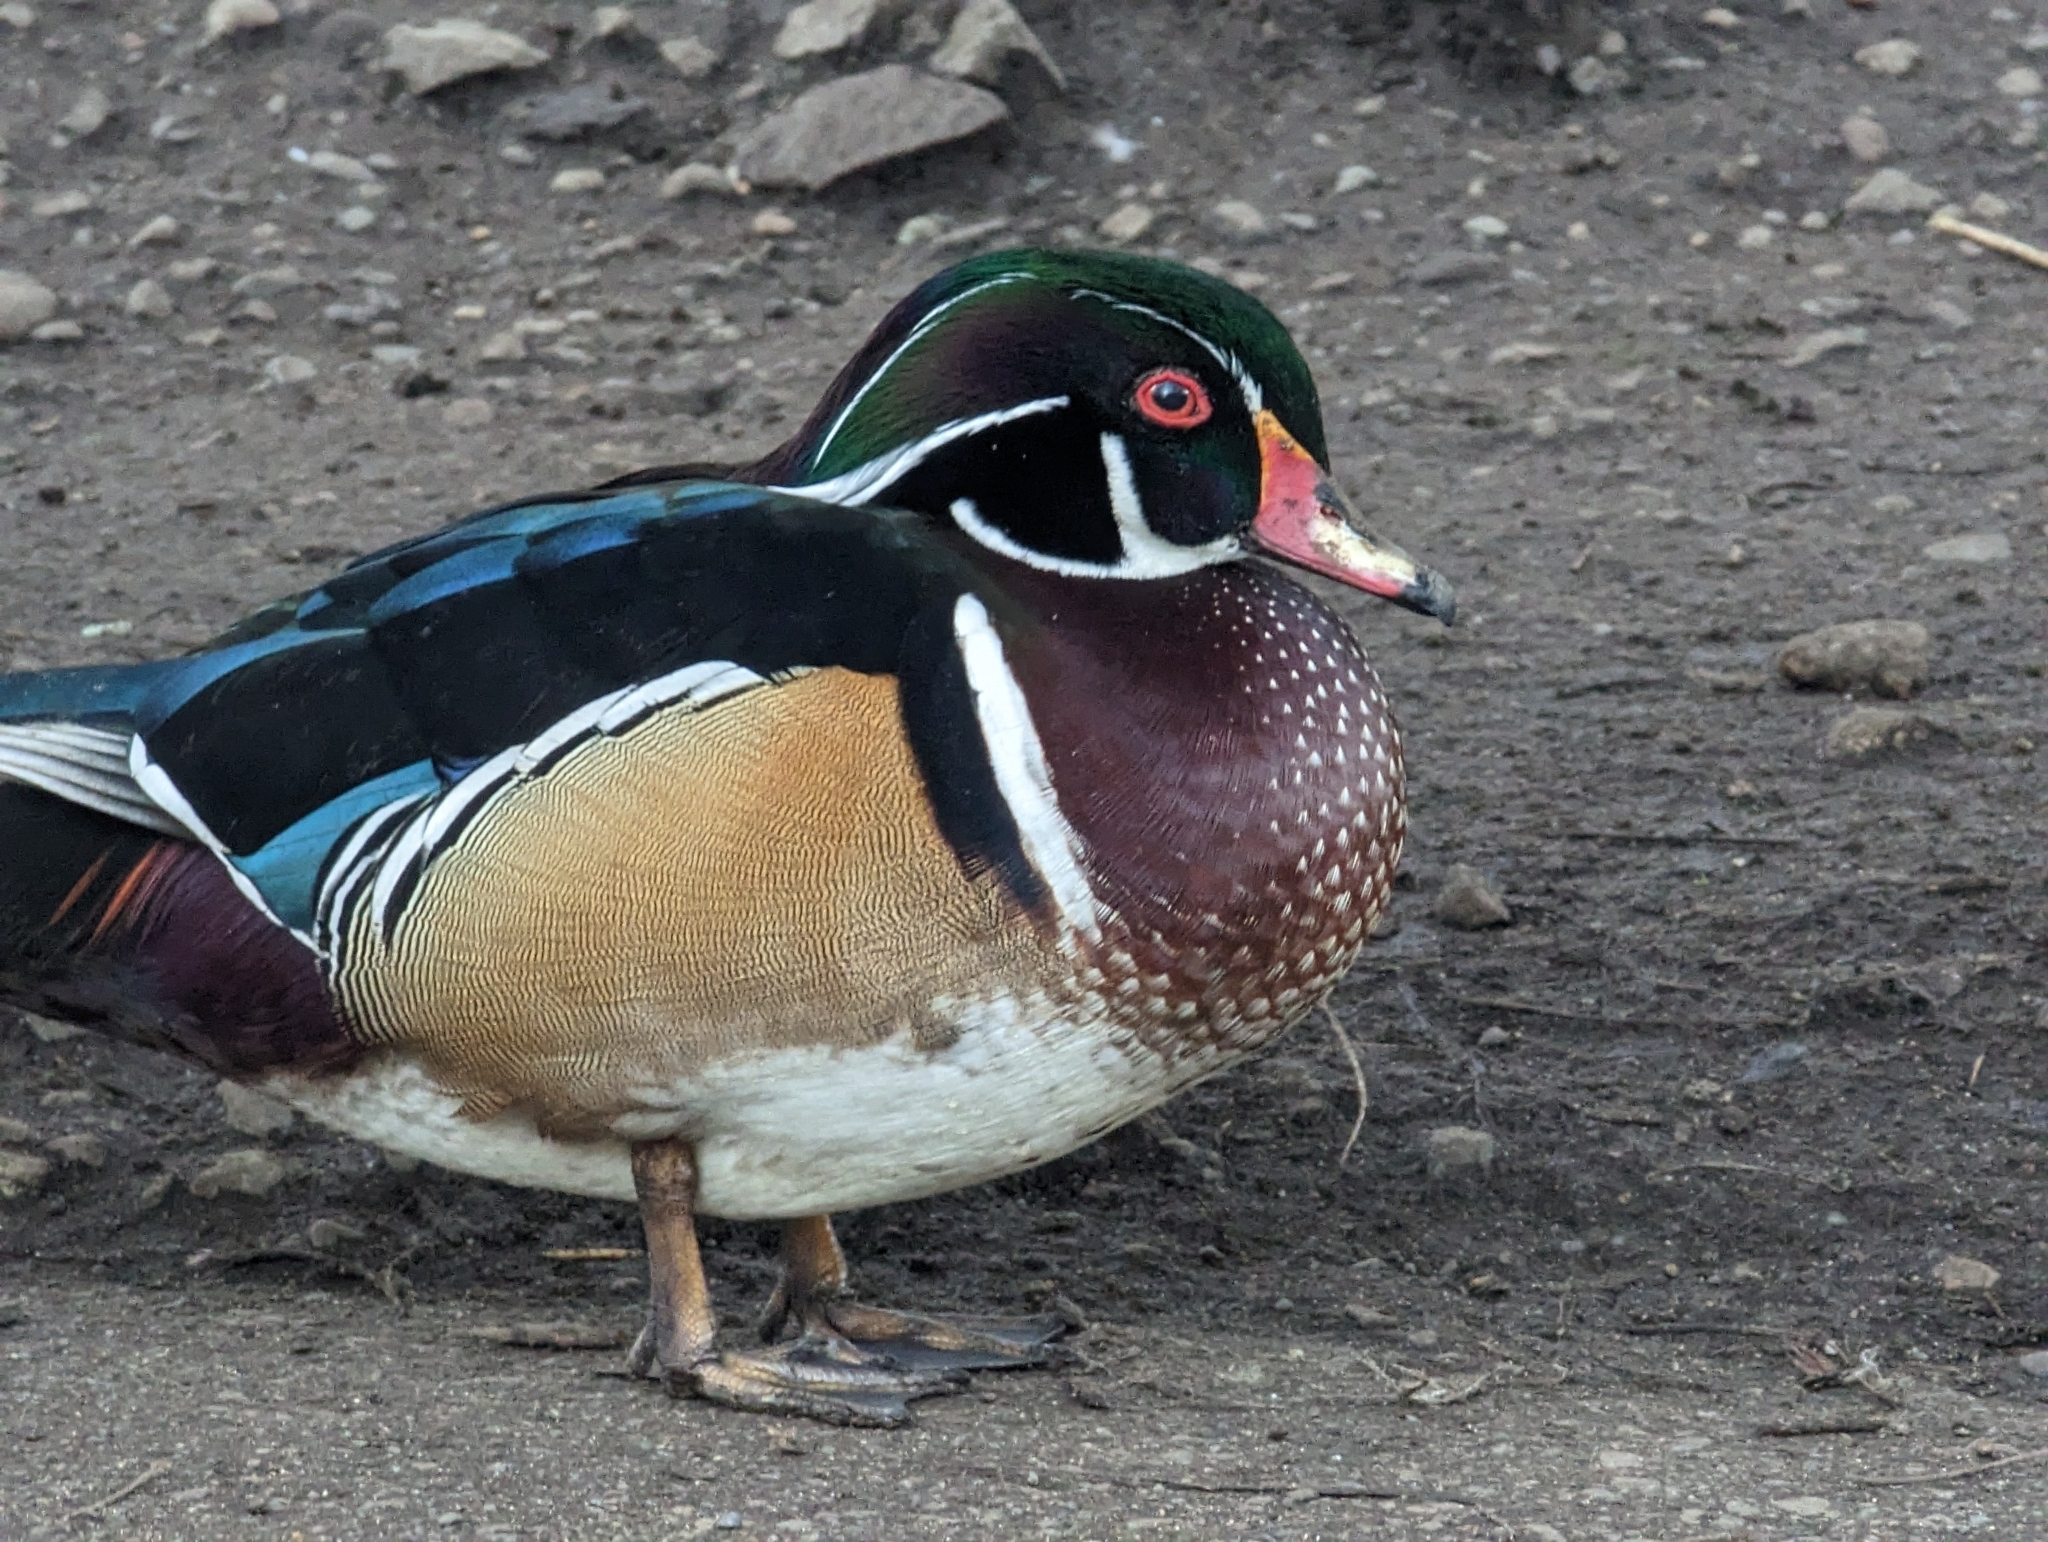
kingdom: Animalia
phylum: Chordata
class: Aves
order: Anseriformes
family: Anatidae
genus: Aix
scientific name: Aix sponsa
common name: Wood duck
